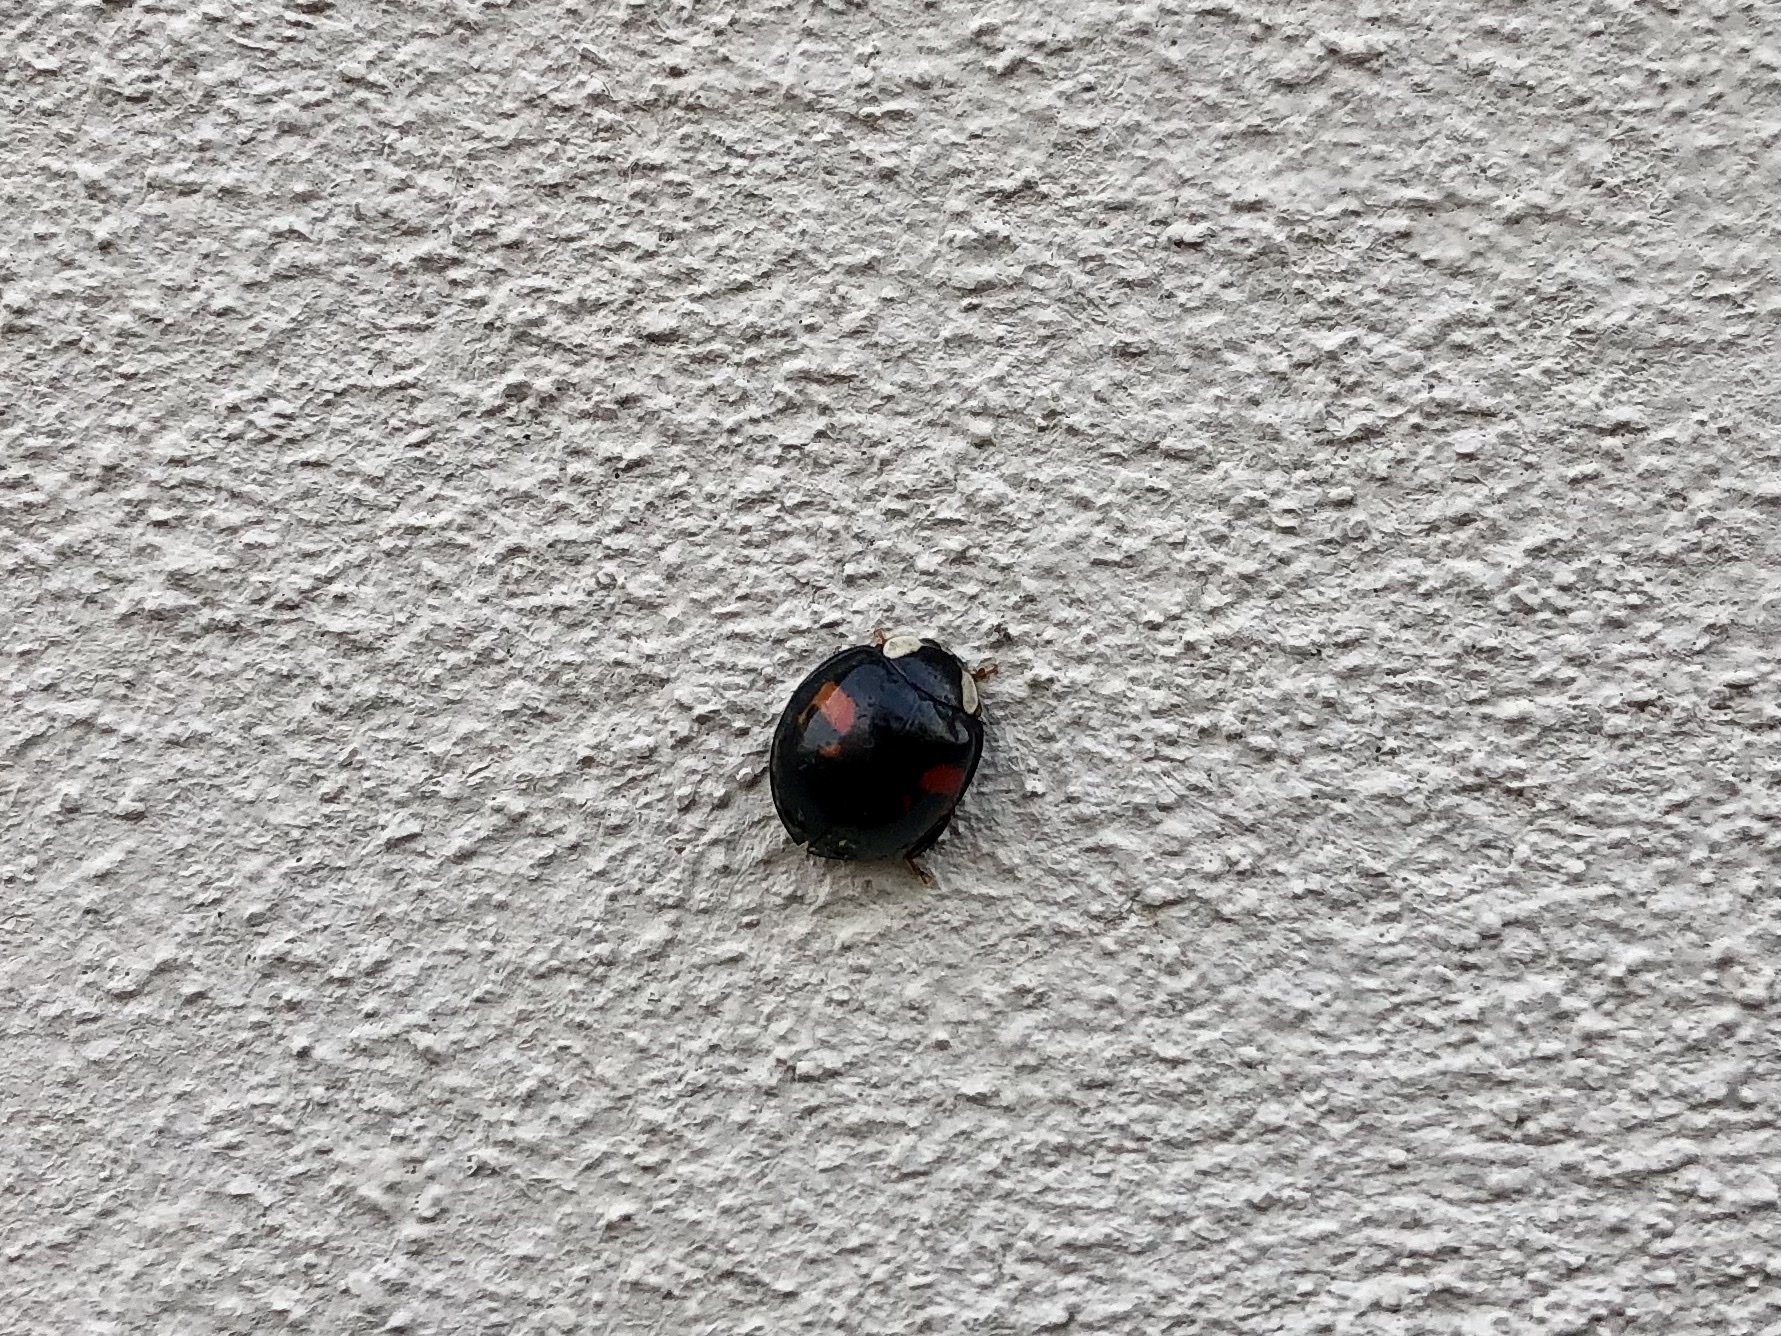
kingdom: Animalia
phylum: Arthropoda
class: Insecta
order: Coleoptera
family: Coccinellidae
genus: Harmonia
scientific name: Harmonia axyridis
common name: Harlequin ladybird
